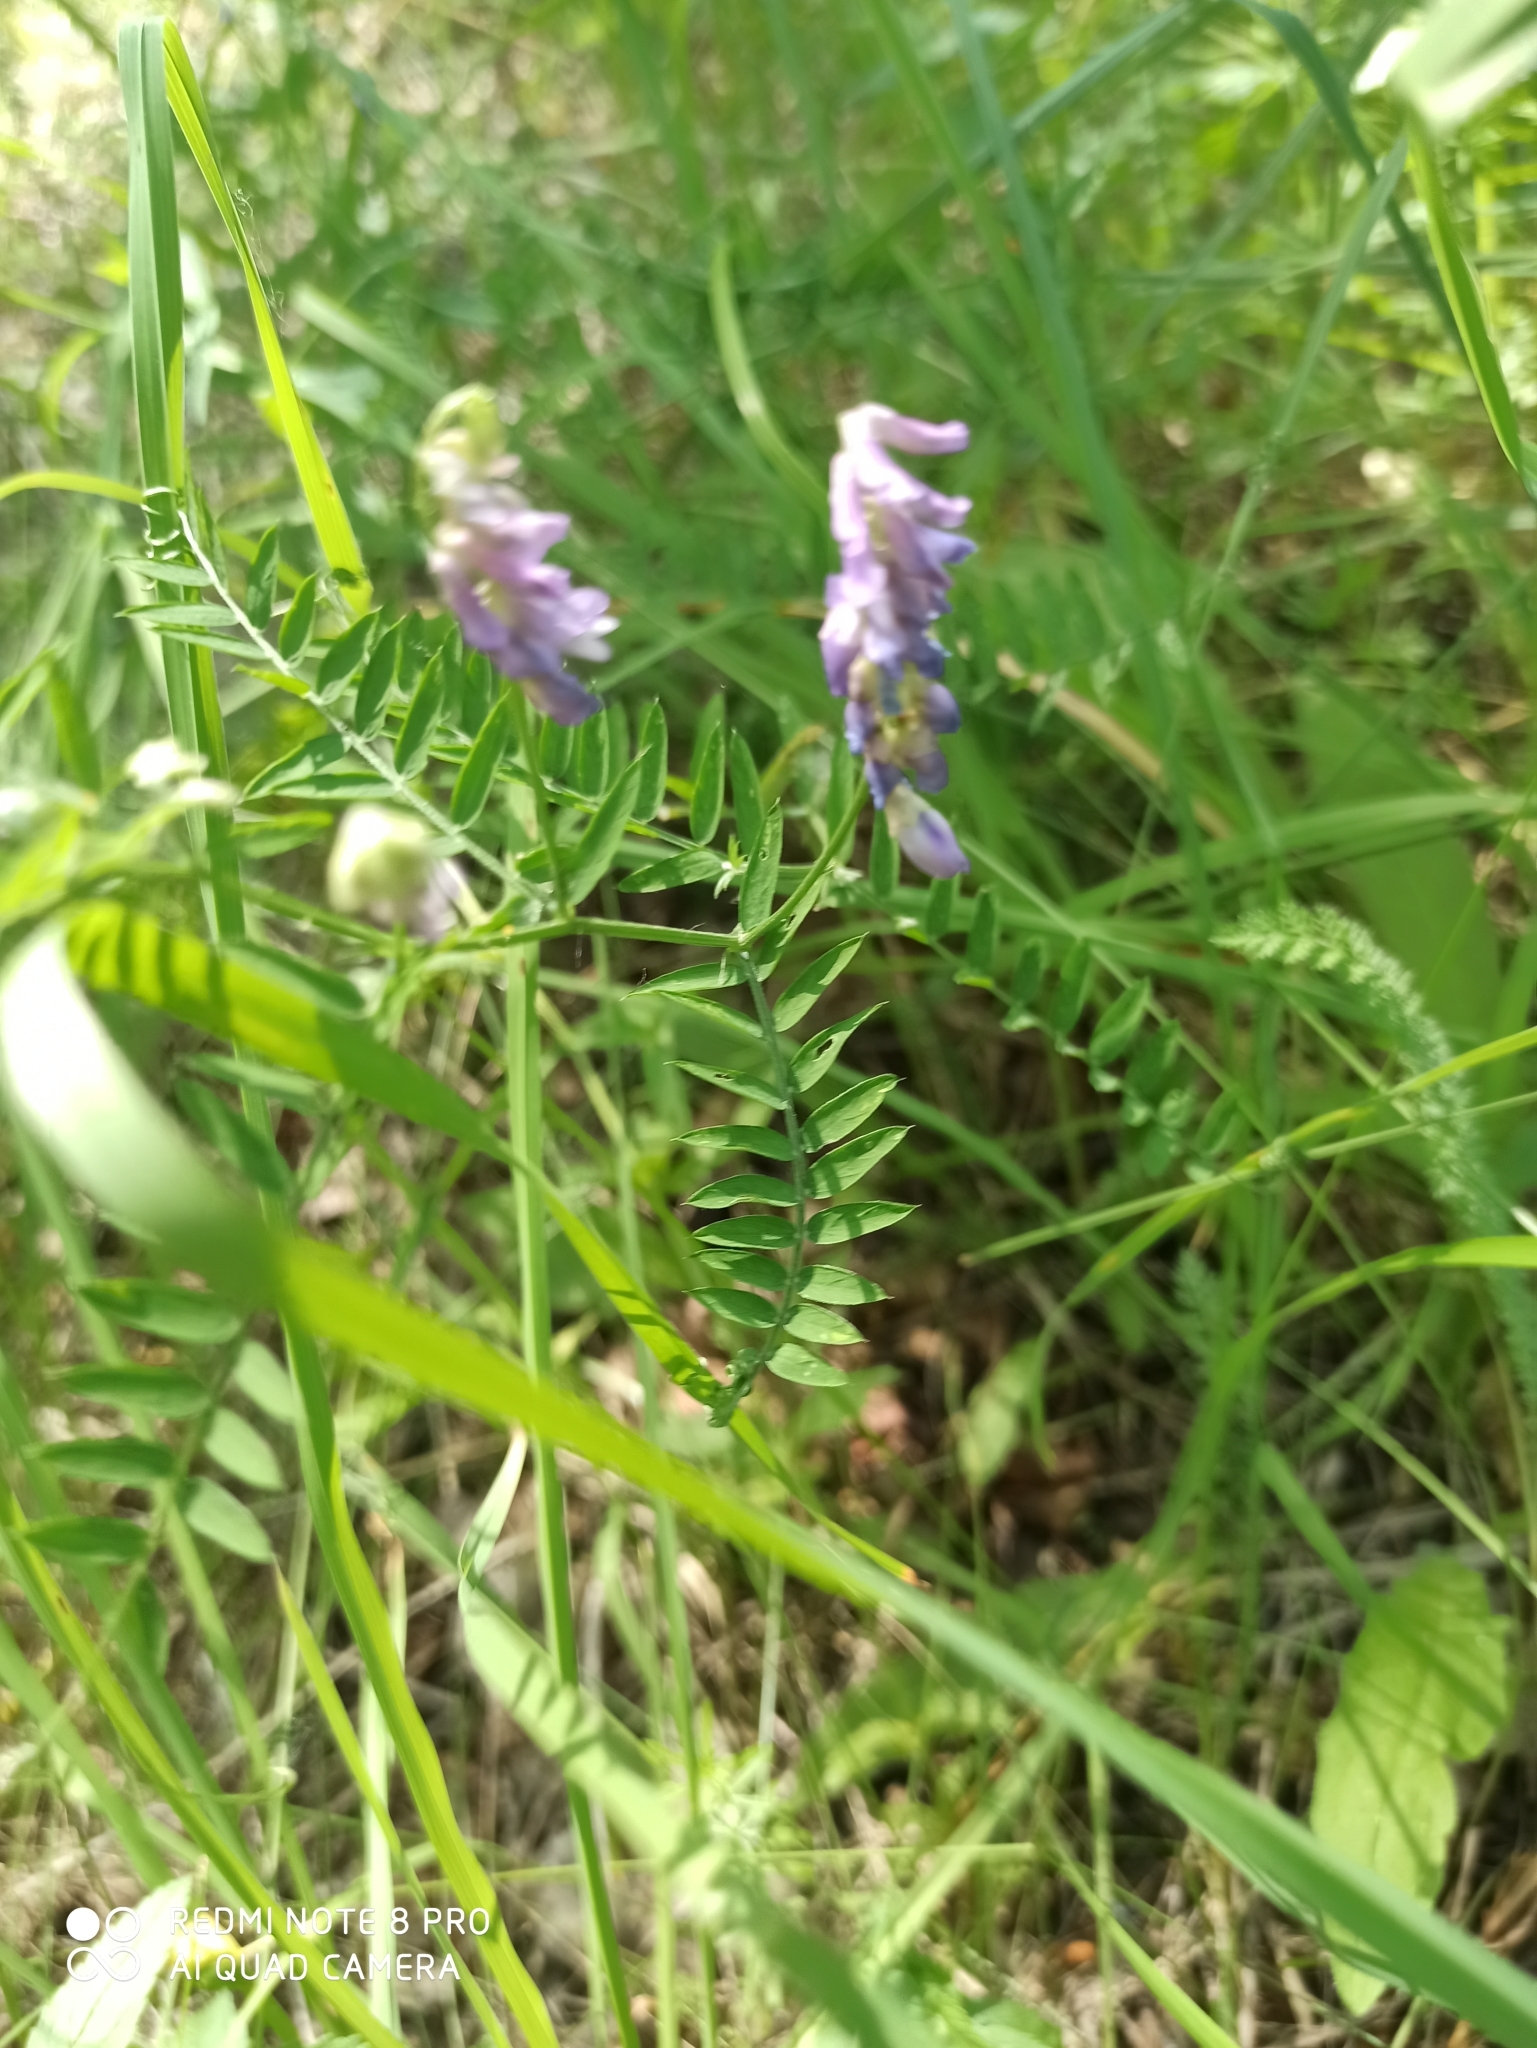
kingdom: Plantae
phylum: Tracheophyta
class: Magnoliopsida
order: Fabales
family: Fabaceae
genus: Vicia
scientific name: Vicia cracca
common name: Bird vetch
